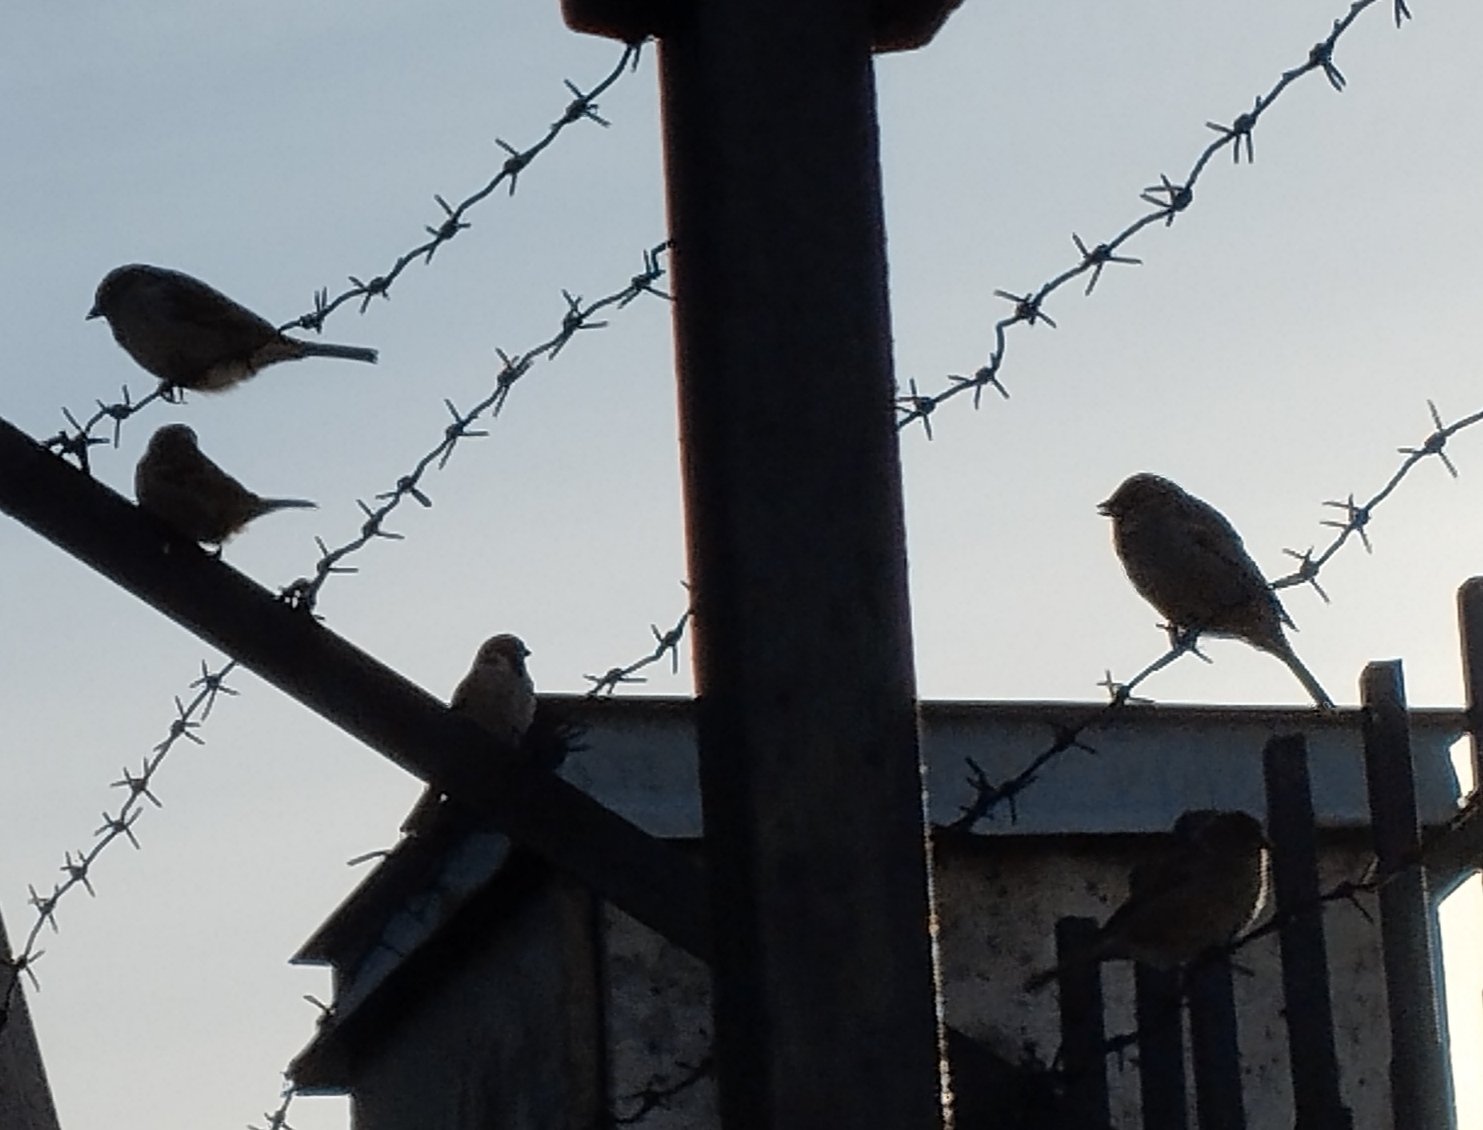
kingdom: Animalia
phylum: Chordata
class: Aves
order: Passeriformes
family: Passeridae
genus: Passer
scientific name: Passer montanus
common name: Eurasian tree sparrow
